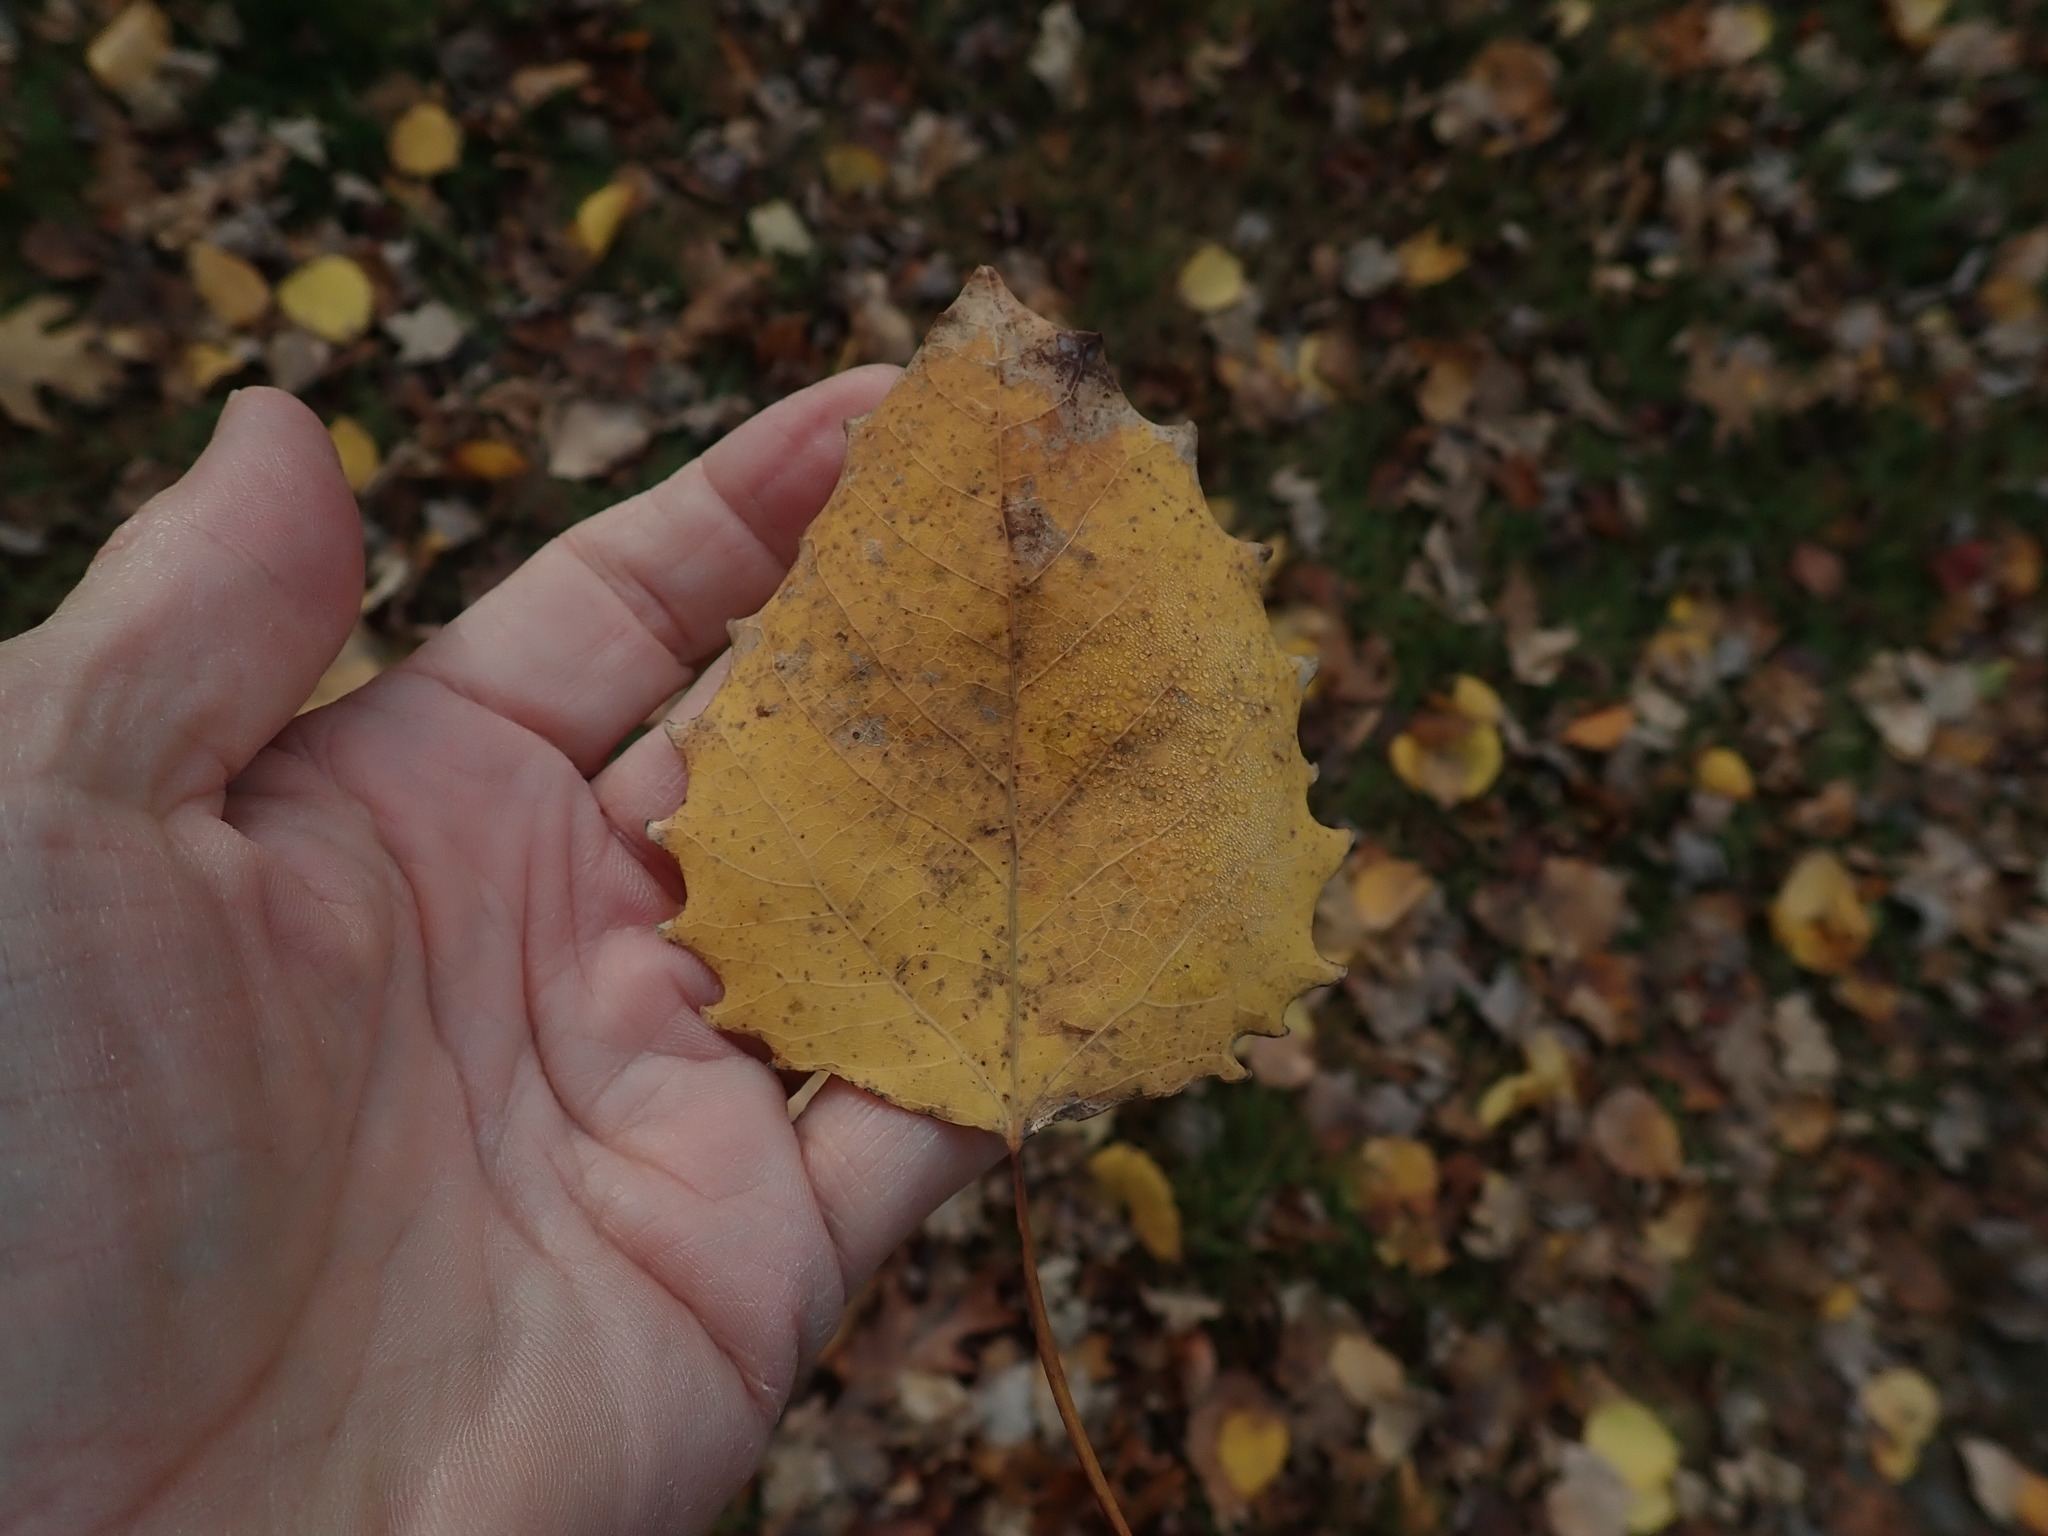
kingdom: Plantae
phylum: Tracheophyta
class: Magnoliopsida
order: Malpighiales
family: Salicaceae
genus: Populus
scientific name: Populus grandidentata
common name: Bigtooth aspen
